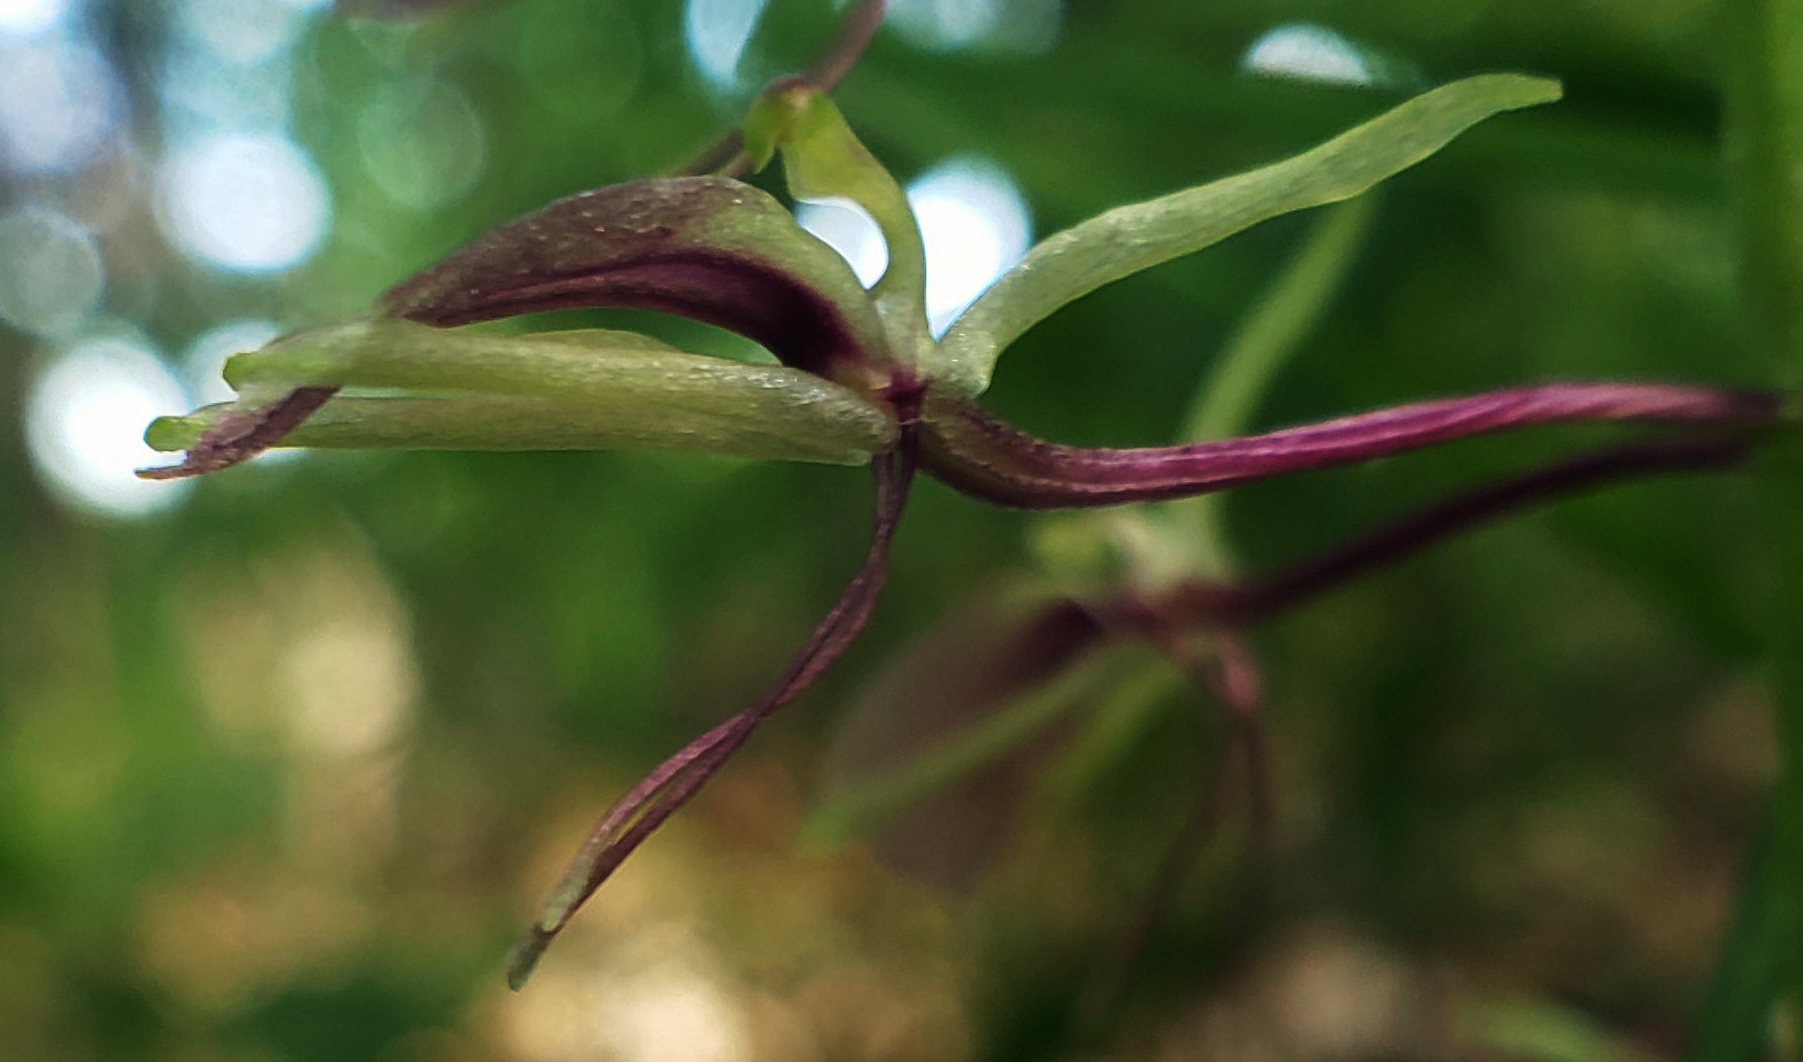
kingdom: Plantae
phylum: Tracheophyta
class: Liliopsida
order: Asparagales
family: Orchidaceae
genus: Liparis
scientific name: Liparis liliifolia
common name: Brown wide-lip orchid
